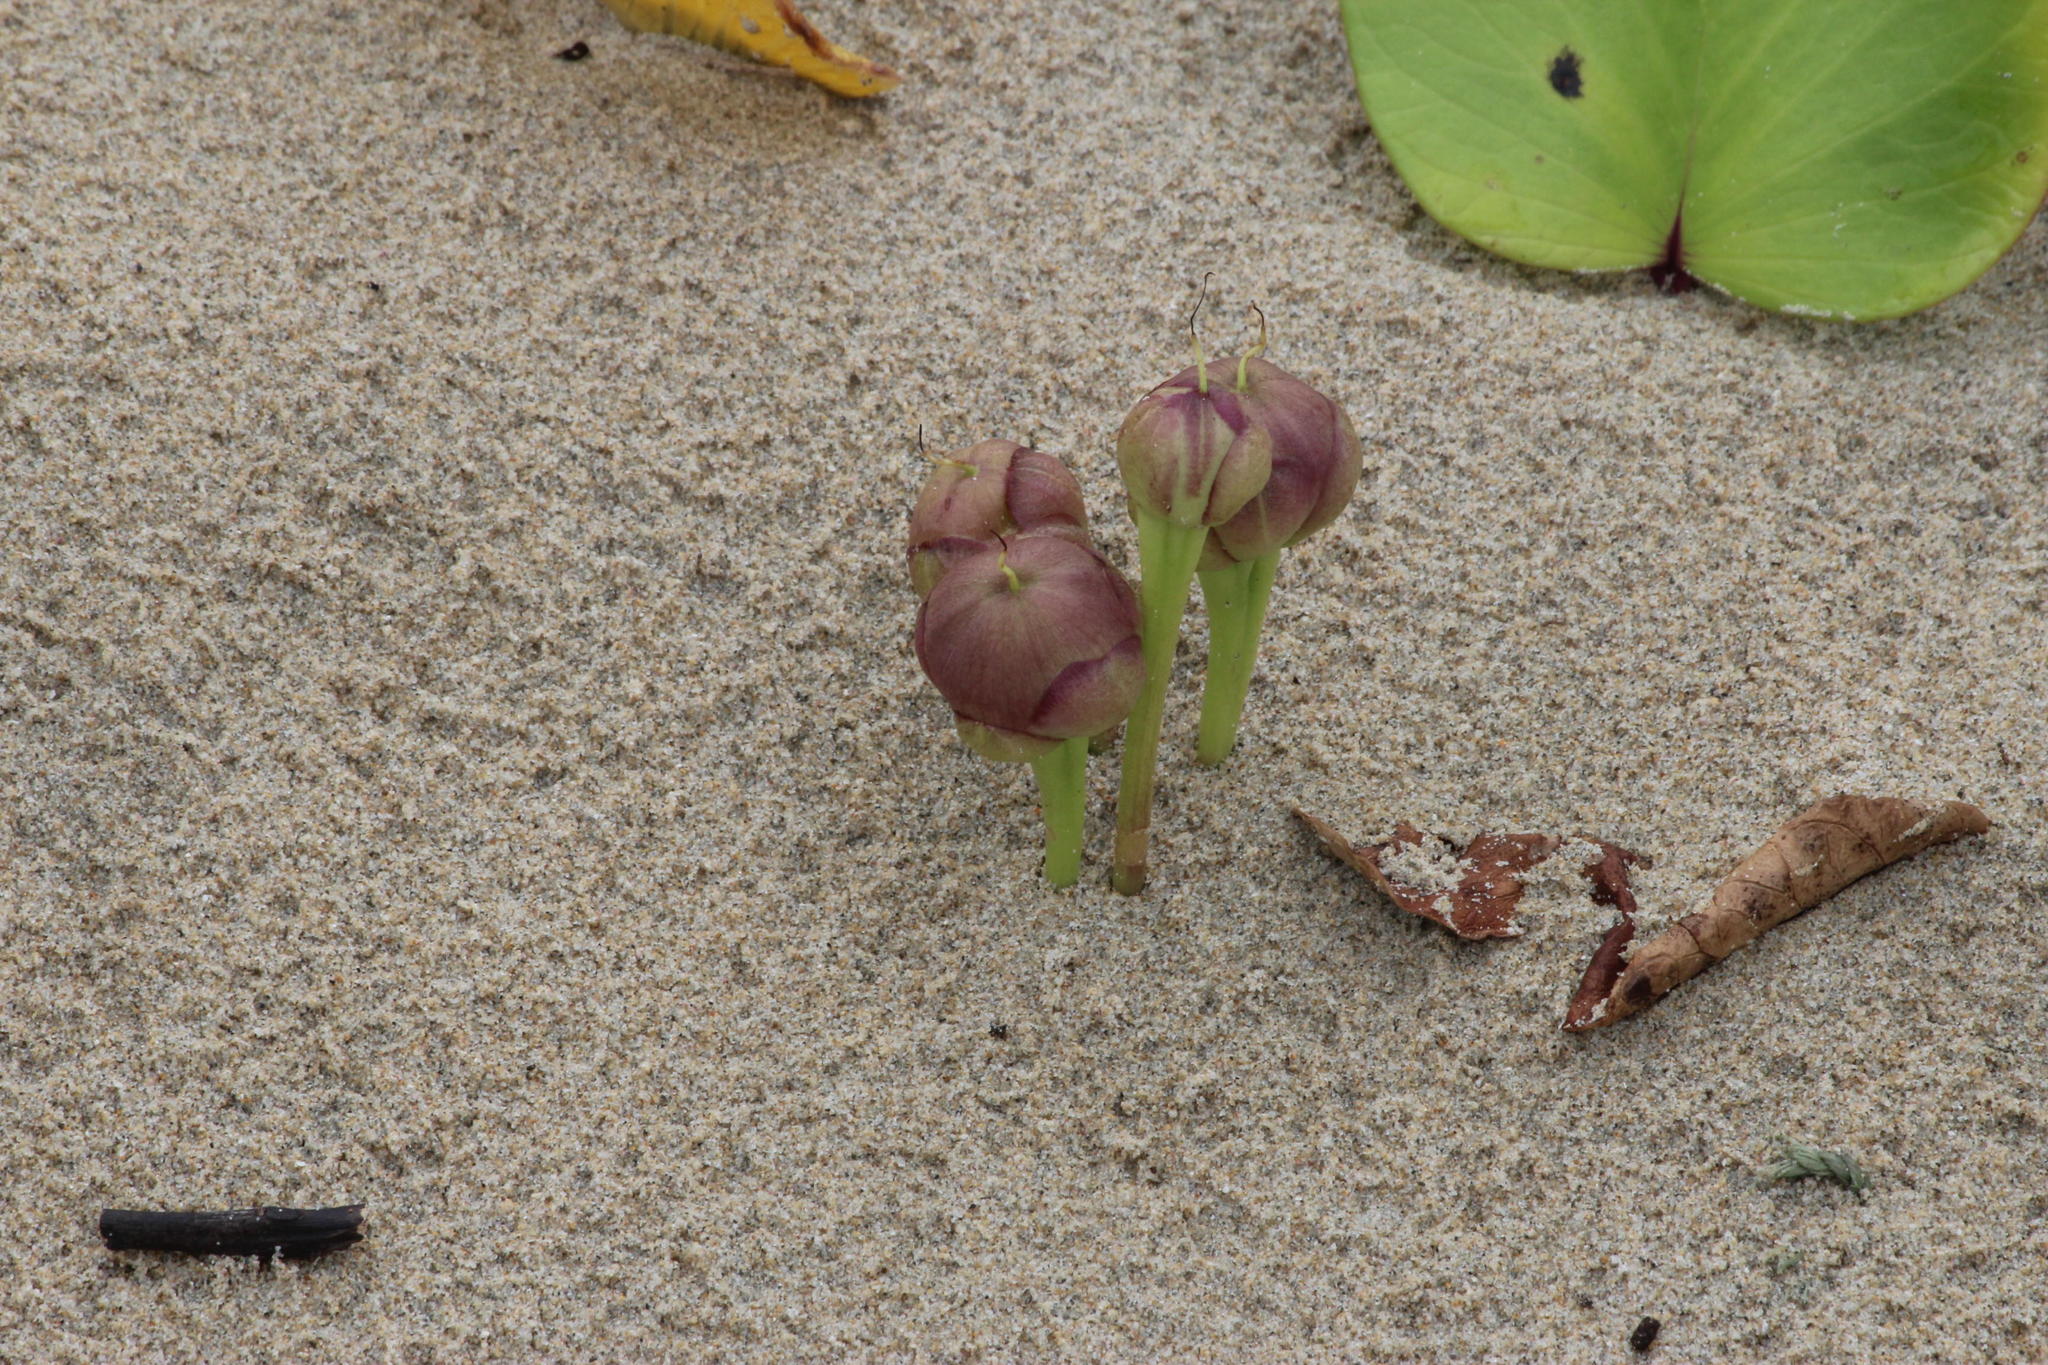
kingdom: Plantae
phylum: Tracheophyta
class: Magnoliopsida
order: Solanales
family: Convolvulaceae
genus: Ipomoea
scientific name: Ipomoea pes-caprae
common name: Beach morning glory
